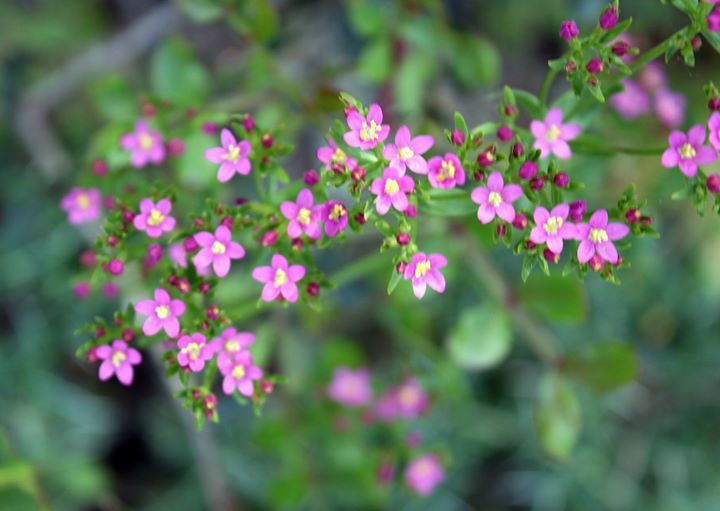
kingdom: Plantae
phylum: Tracheophyta
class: Magnoliopsida
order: Gentianales
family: Gentianaceae
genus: Centaurium
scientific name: Centaurium erythraea
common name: Common centaury
